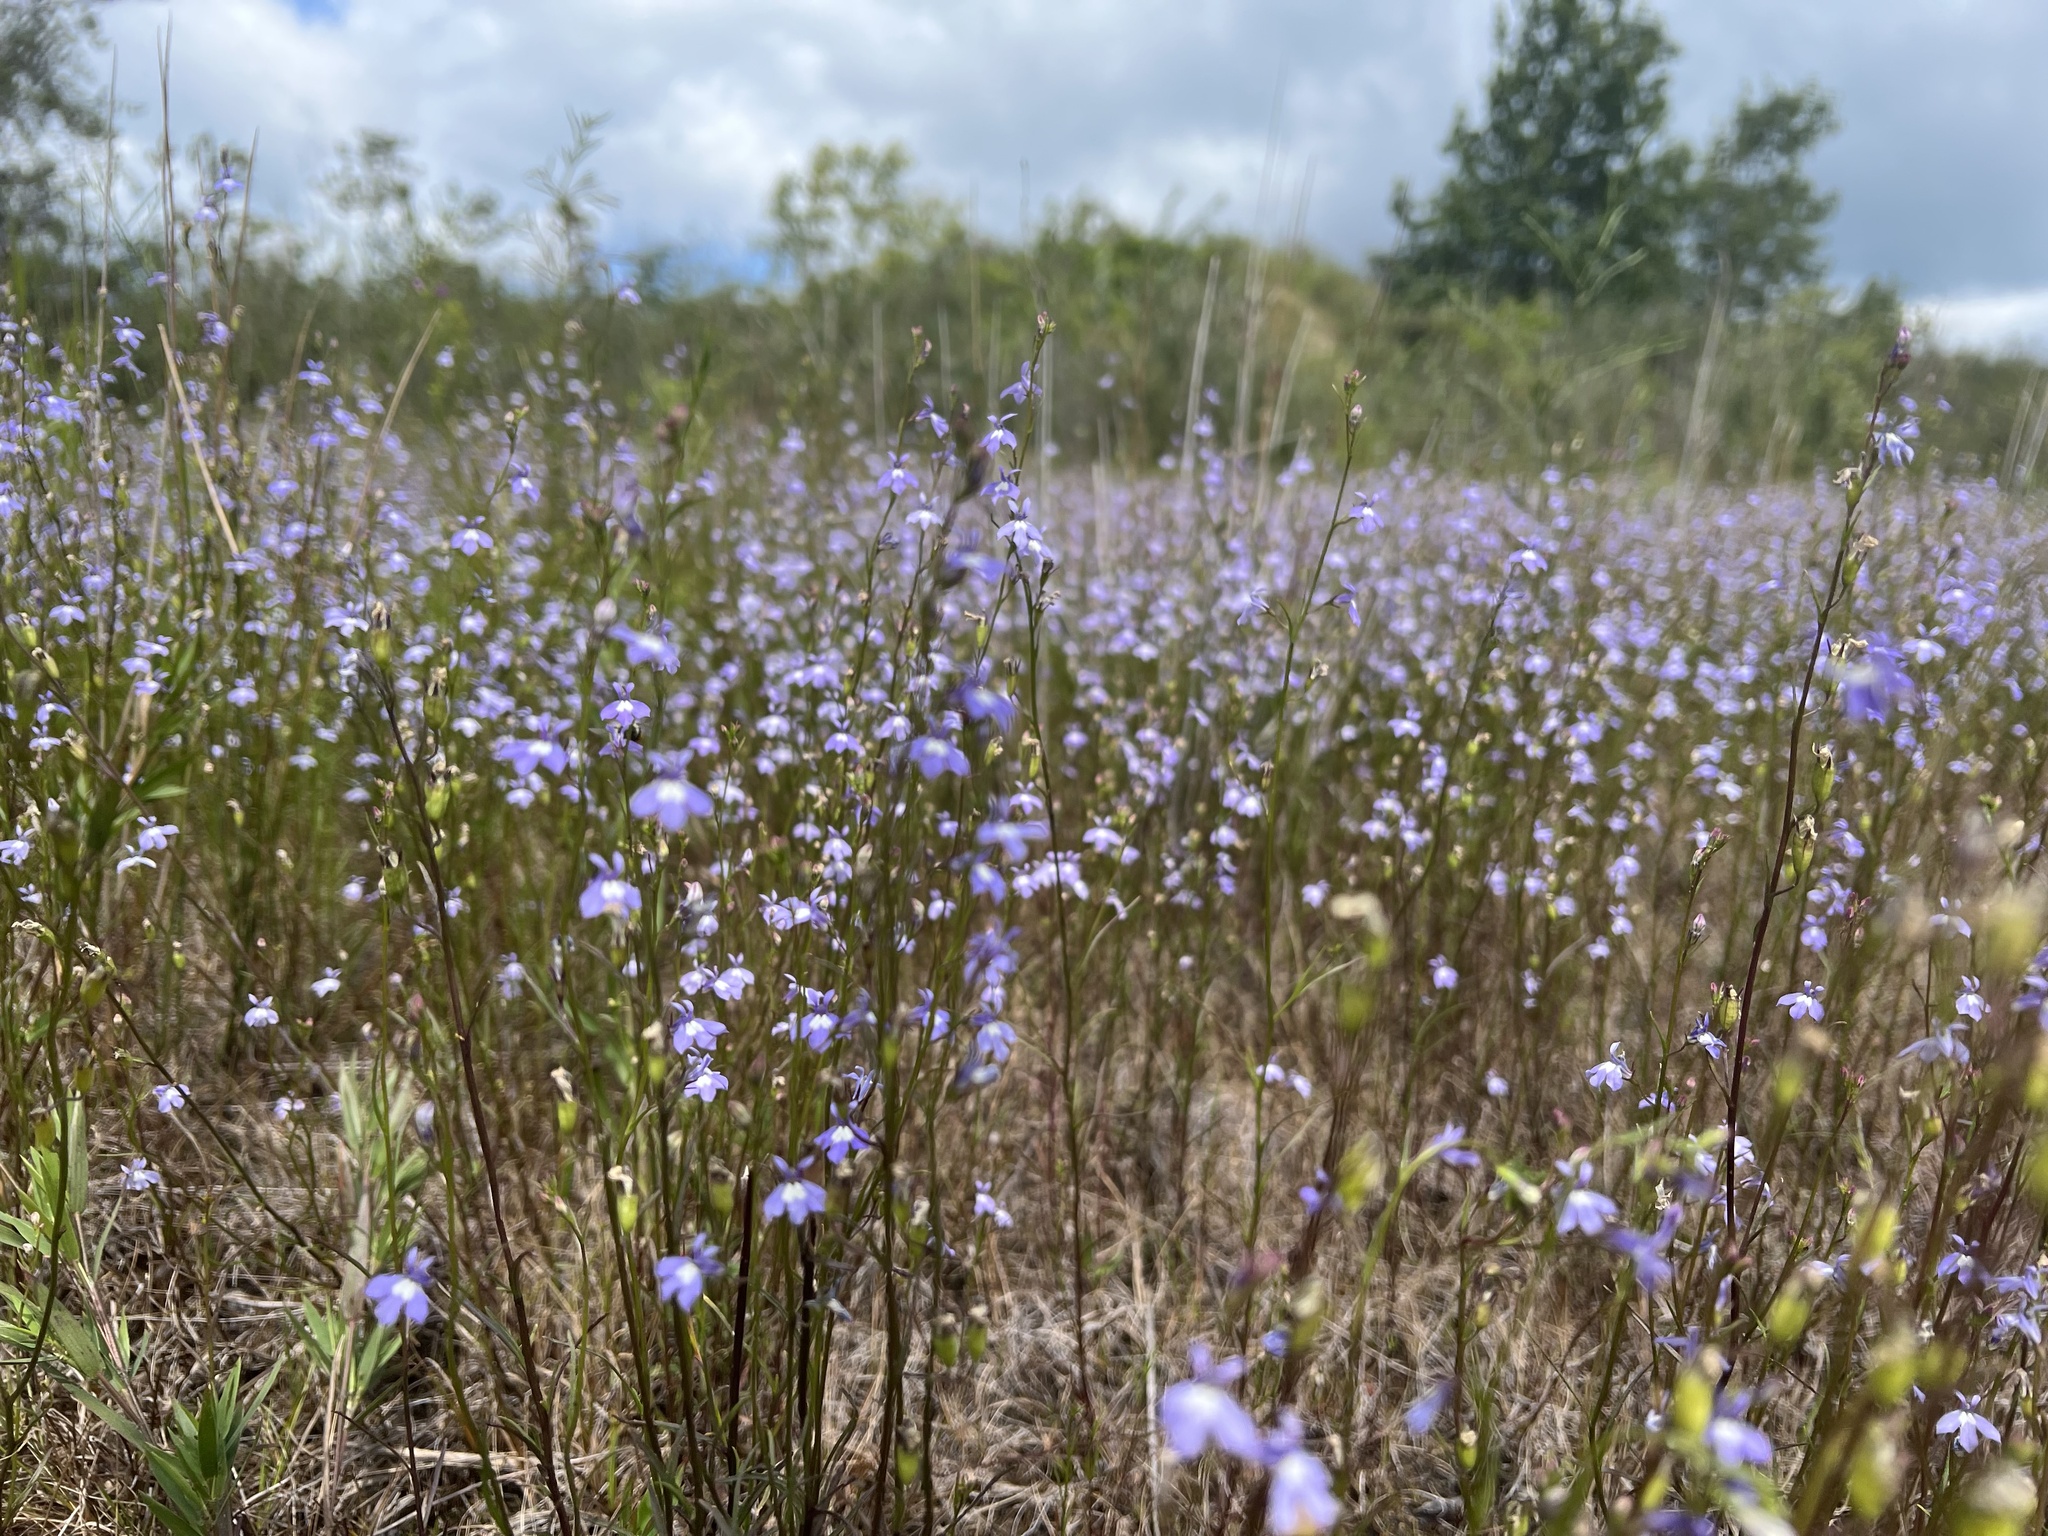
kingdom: Plantae
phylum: Tracheophyta
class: Magnoliopsida
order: Asterales
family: Campanulaceae
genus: Lobelia
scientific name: Lobelia kalmii
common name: Kalm's lobelia
